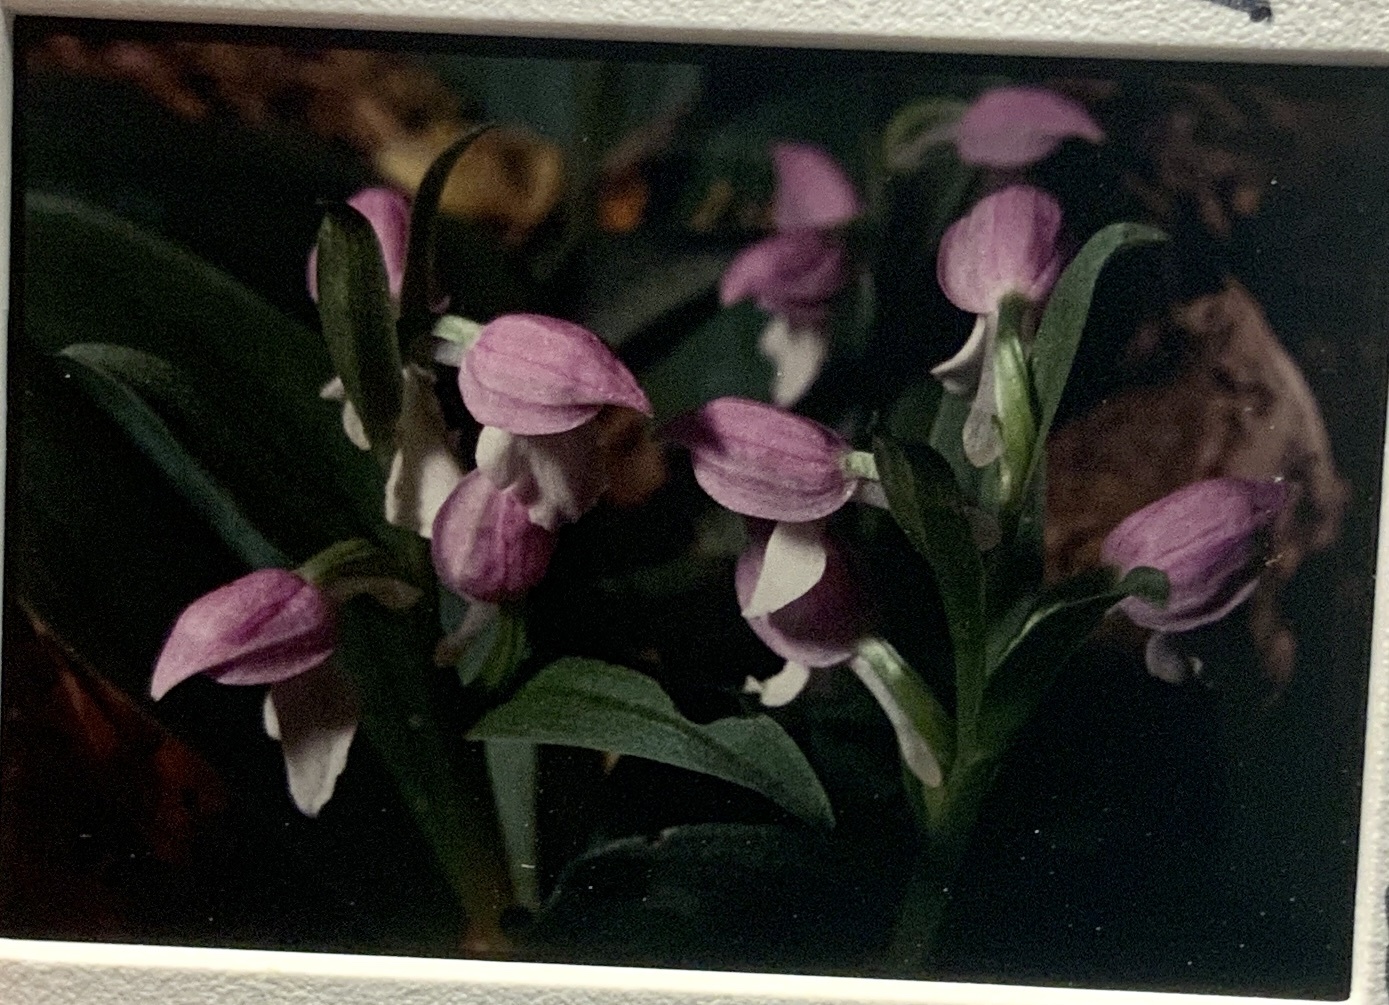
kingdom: Plantae
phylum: Tracheophyta
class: Liliopsida
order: Asparagales
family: Orchidaceae
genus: Galearis
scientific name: Galearis spectabilis
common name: Purple-hooded orchis
